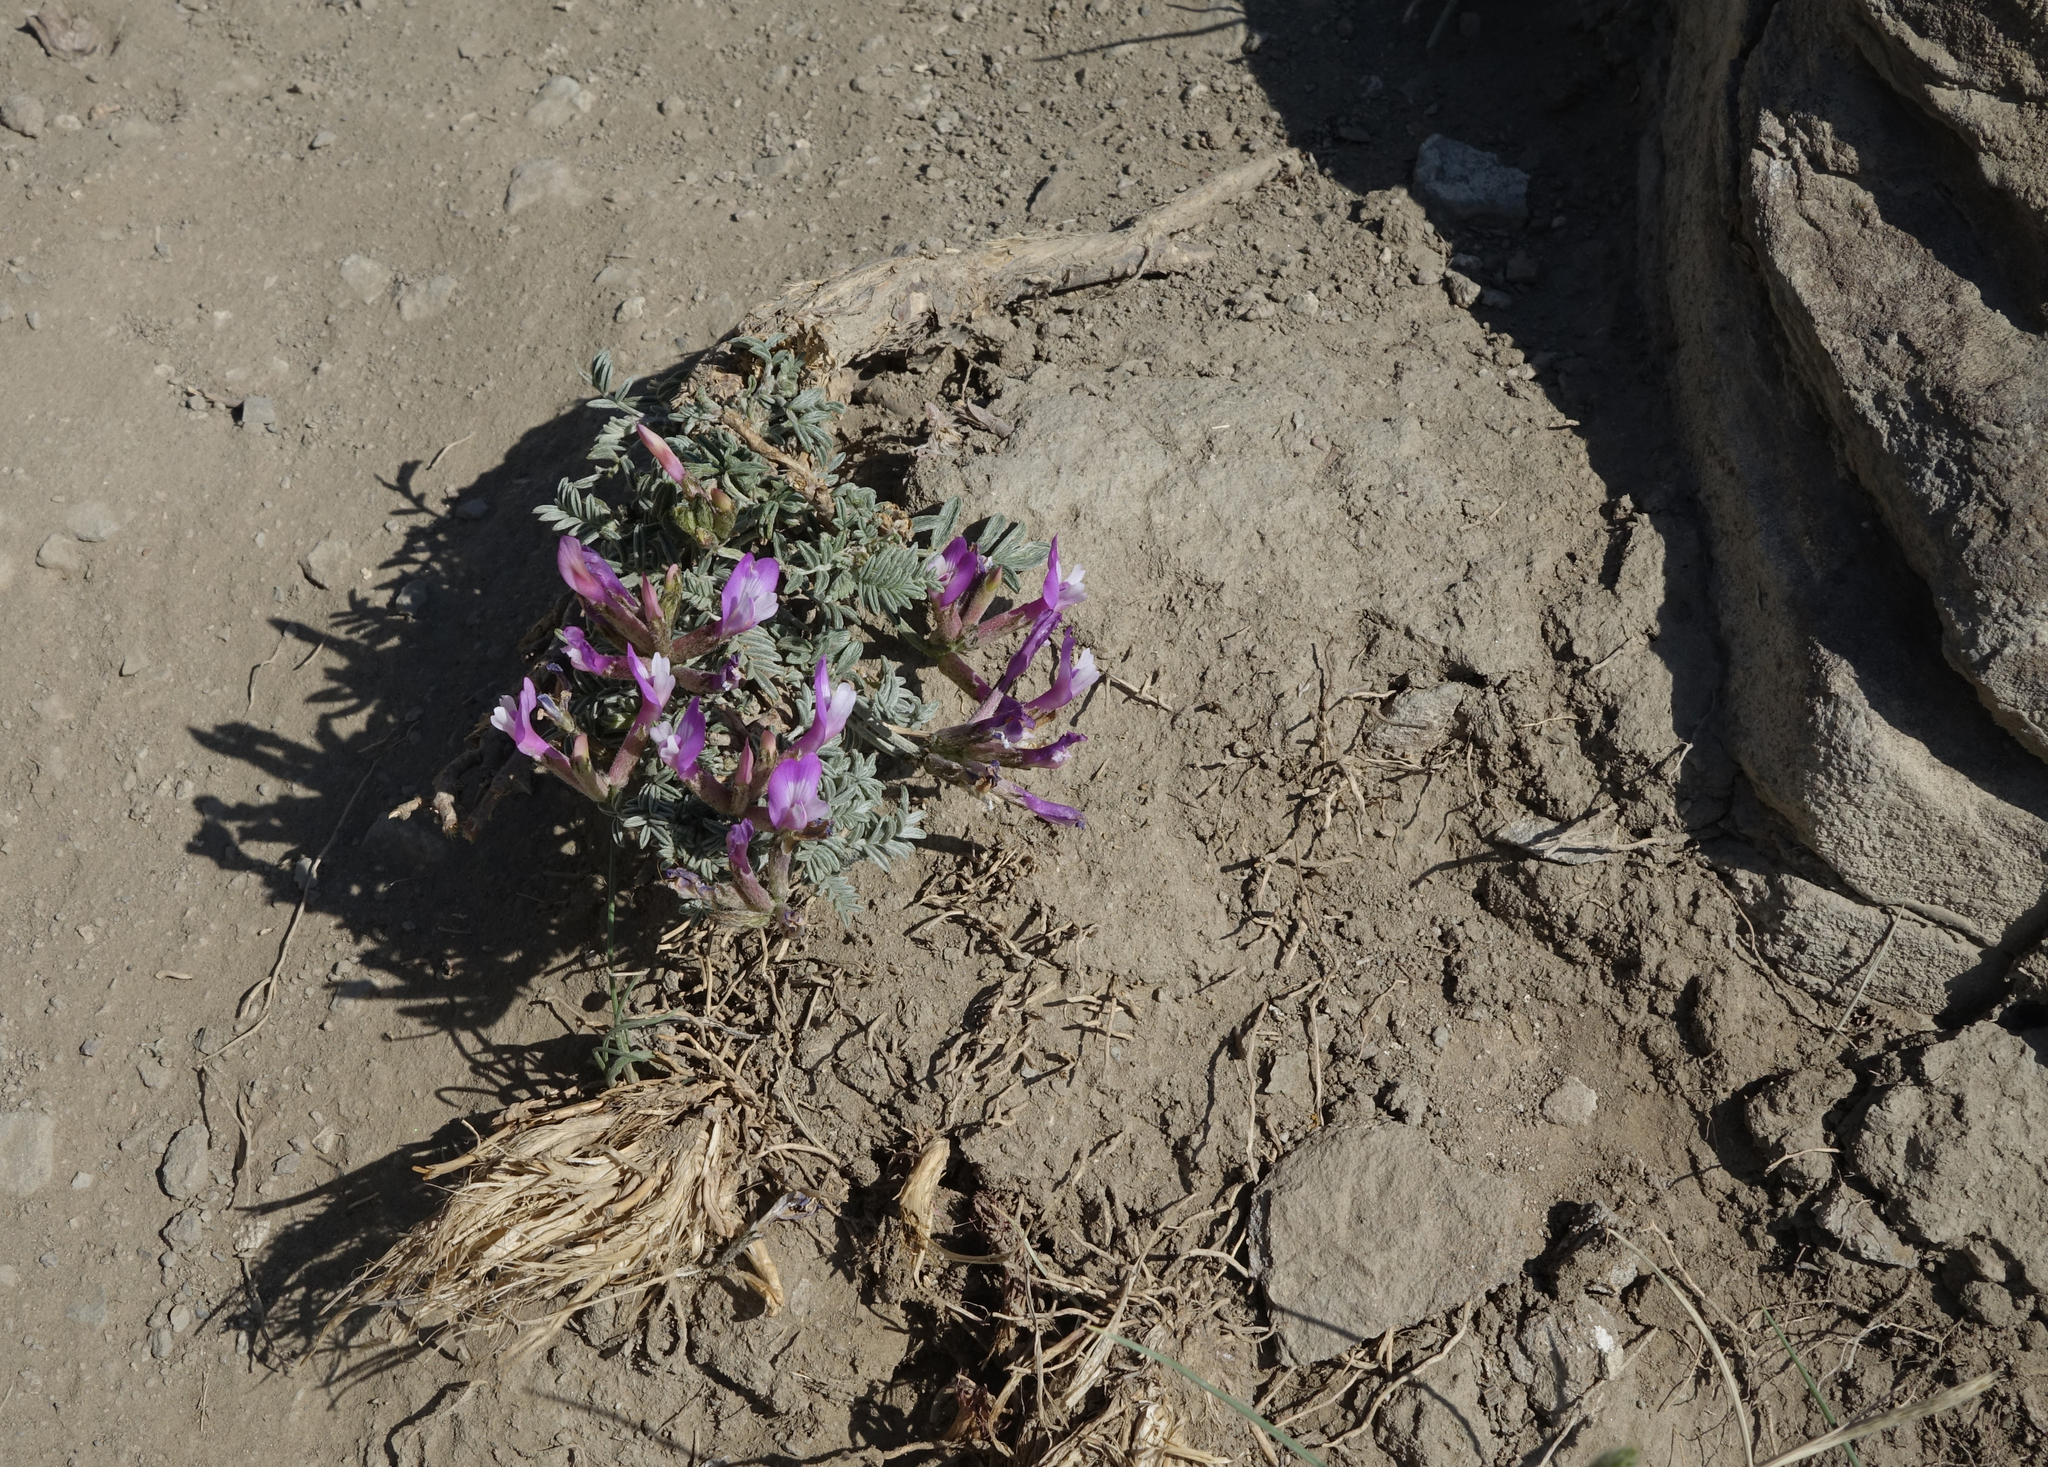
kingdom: Plantae
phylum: Tracheophyta
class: Magnoliopsida
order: Fabales
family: Fabaceae
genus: Astragalus
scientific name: Astragalus stenoceras
